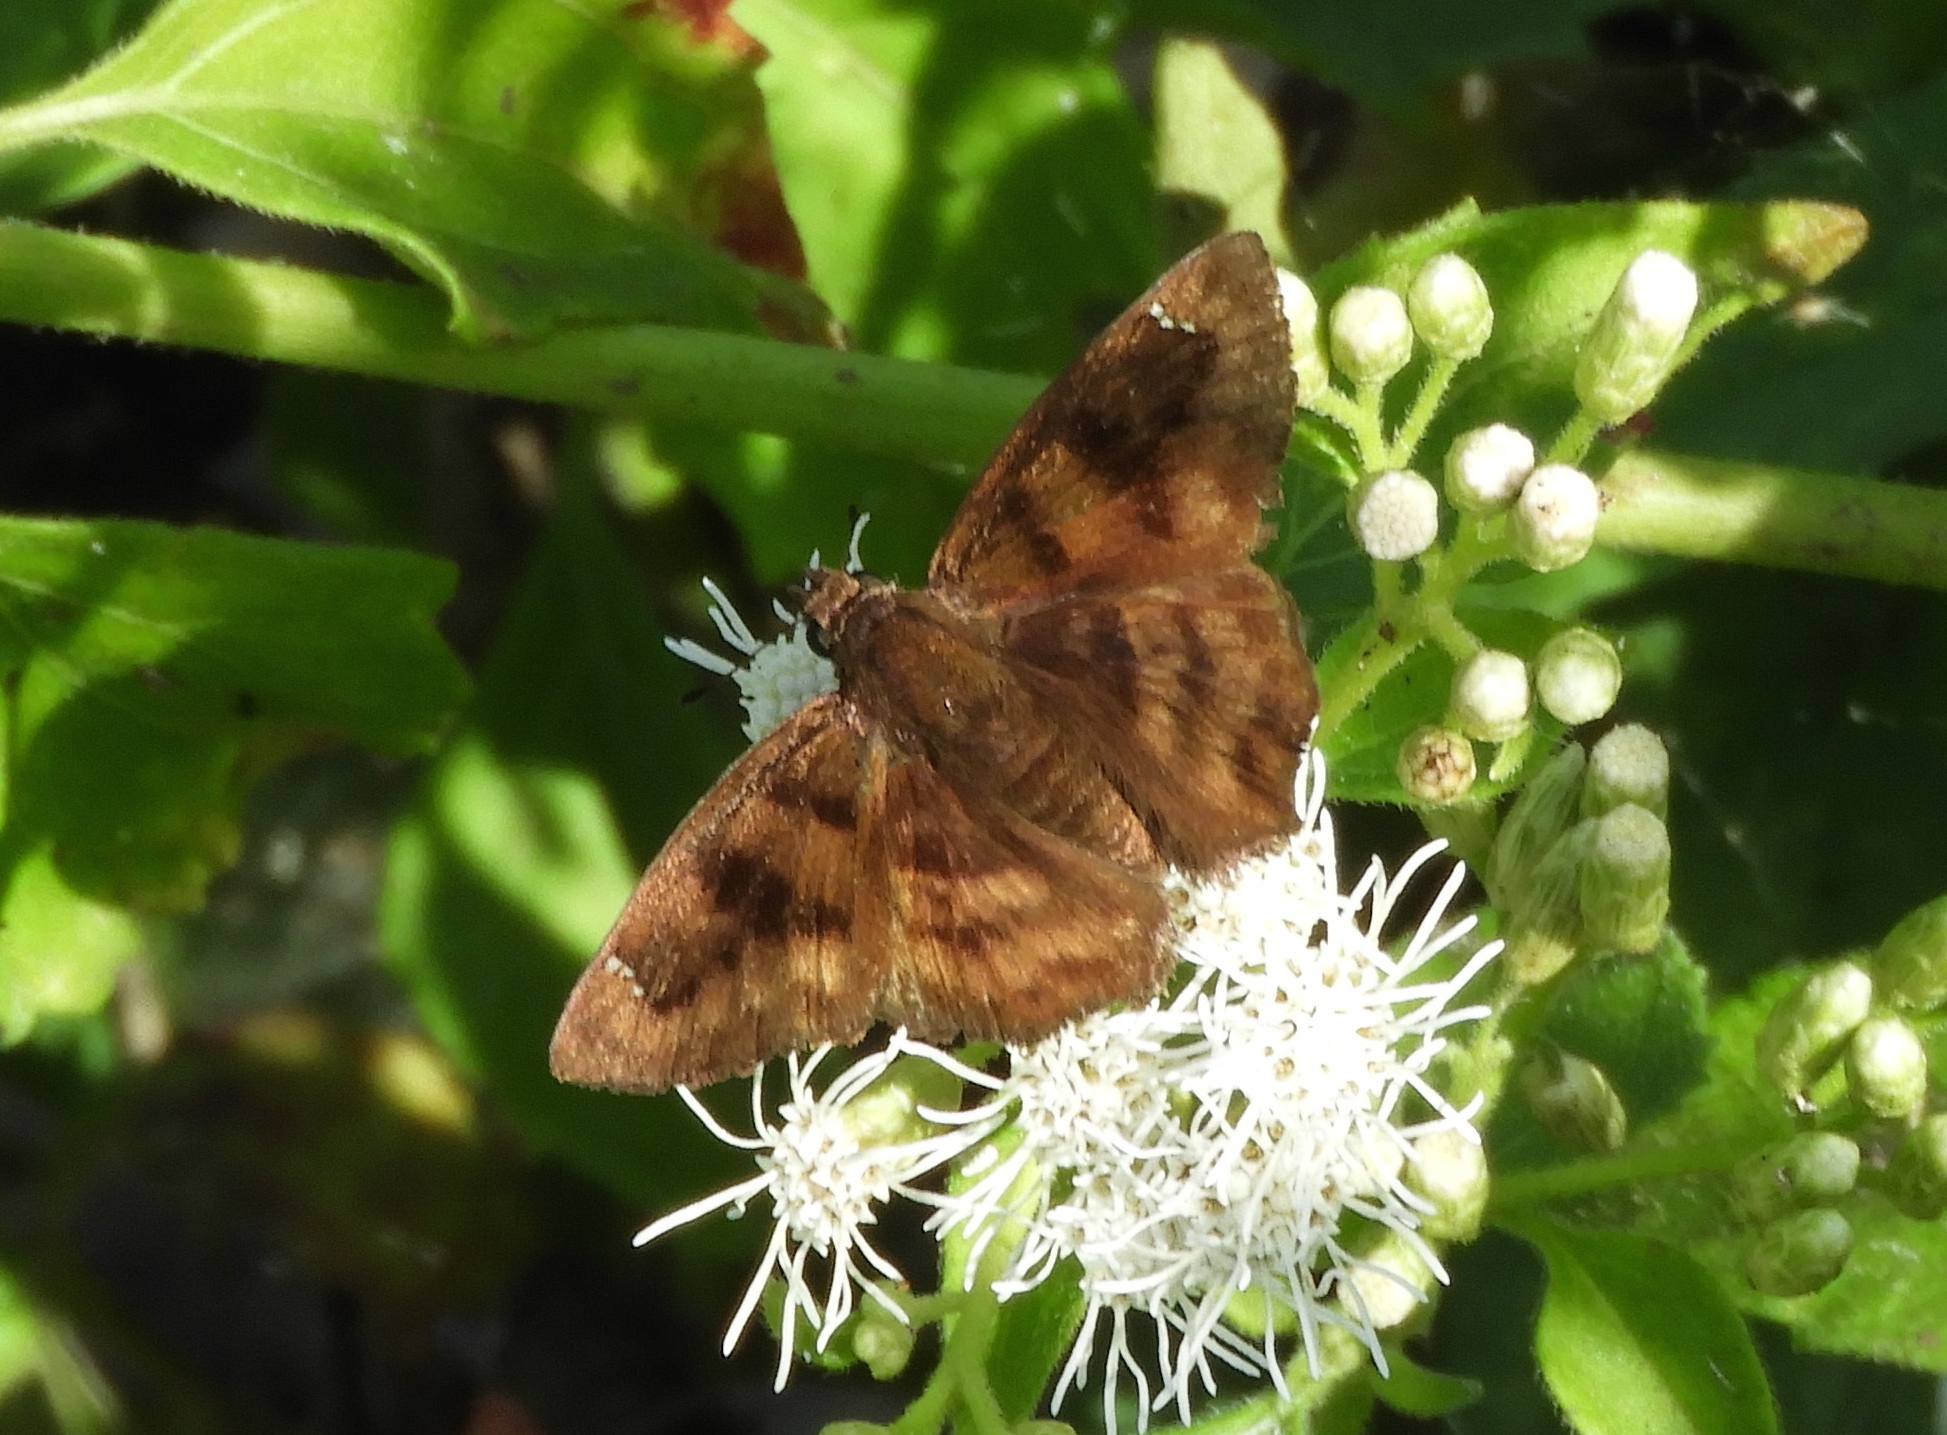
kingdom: Animalia
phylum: Arthropoda
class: Insecta
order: Lepidoptera
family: Hesperiidae
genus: Nisoniades
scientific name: Nisoniades rubescens
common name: Purplish-black skipper
